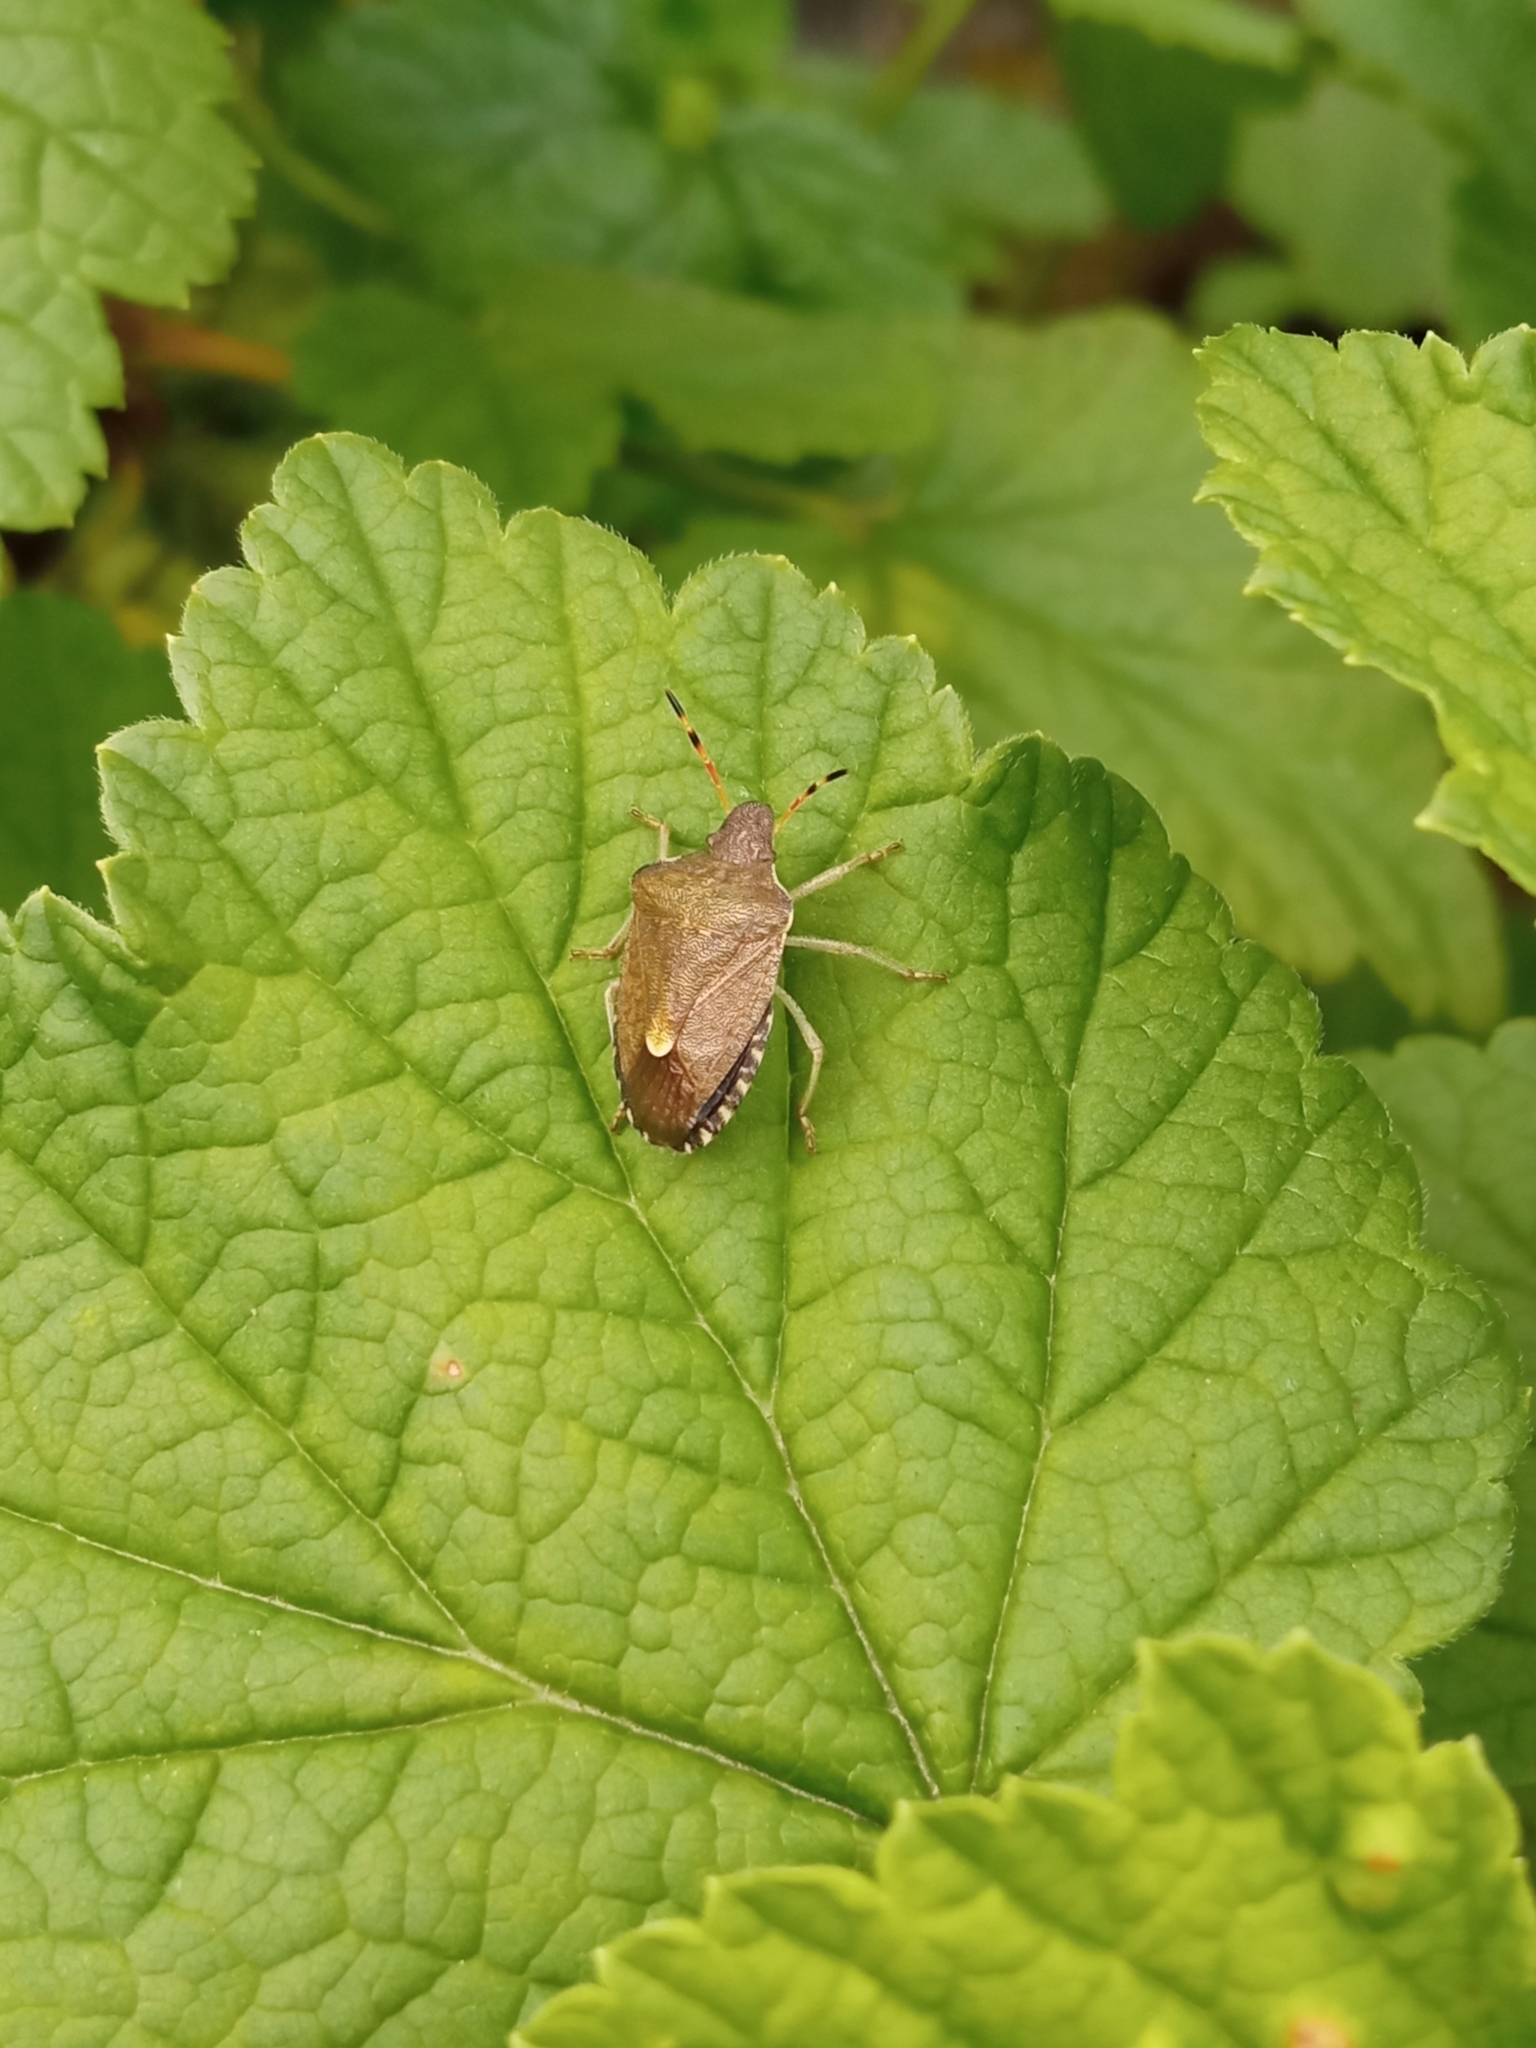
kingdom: Animalia
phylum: Arthropoda
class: Insecta
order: Hemiptera
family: Pentatomidae
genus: Holcostethus
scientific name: Holcostethus strictus
